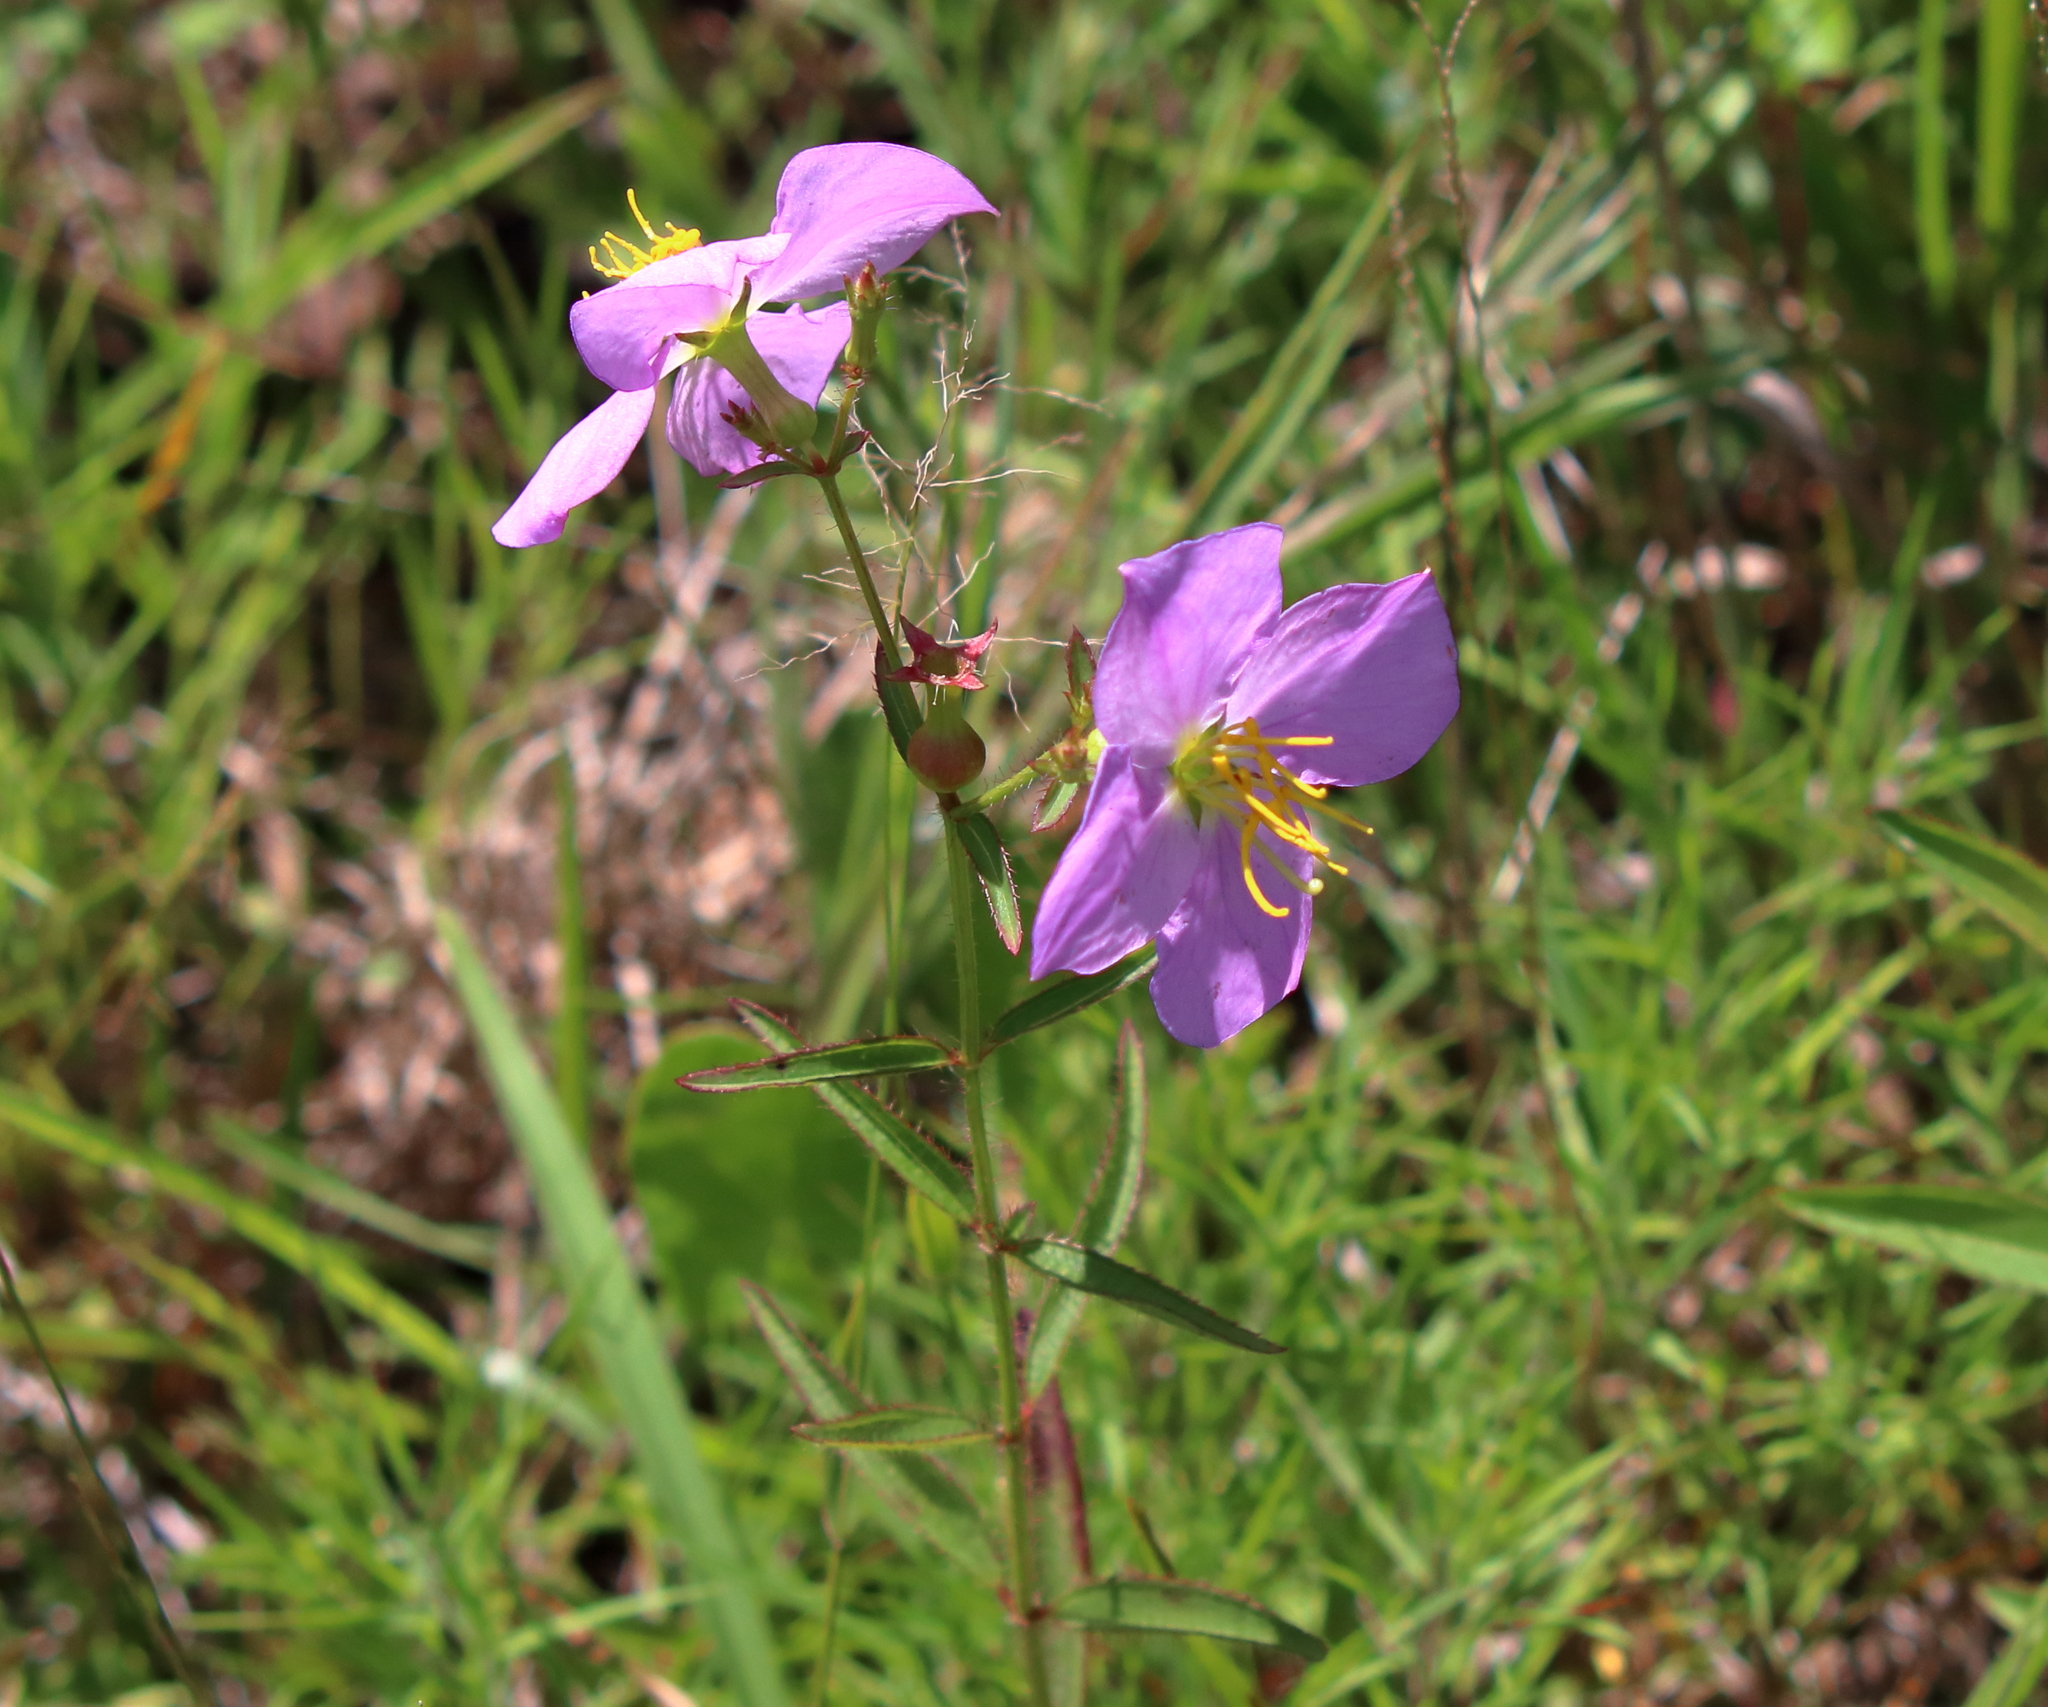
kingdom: Plantae
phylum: Tracheophyta
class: Magnoliopsida
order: Myrtales
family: Melastomataceae
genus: Rhexia
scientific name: Rhexia nashii
